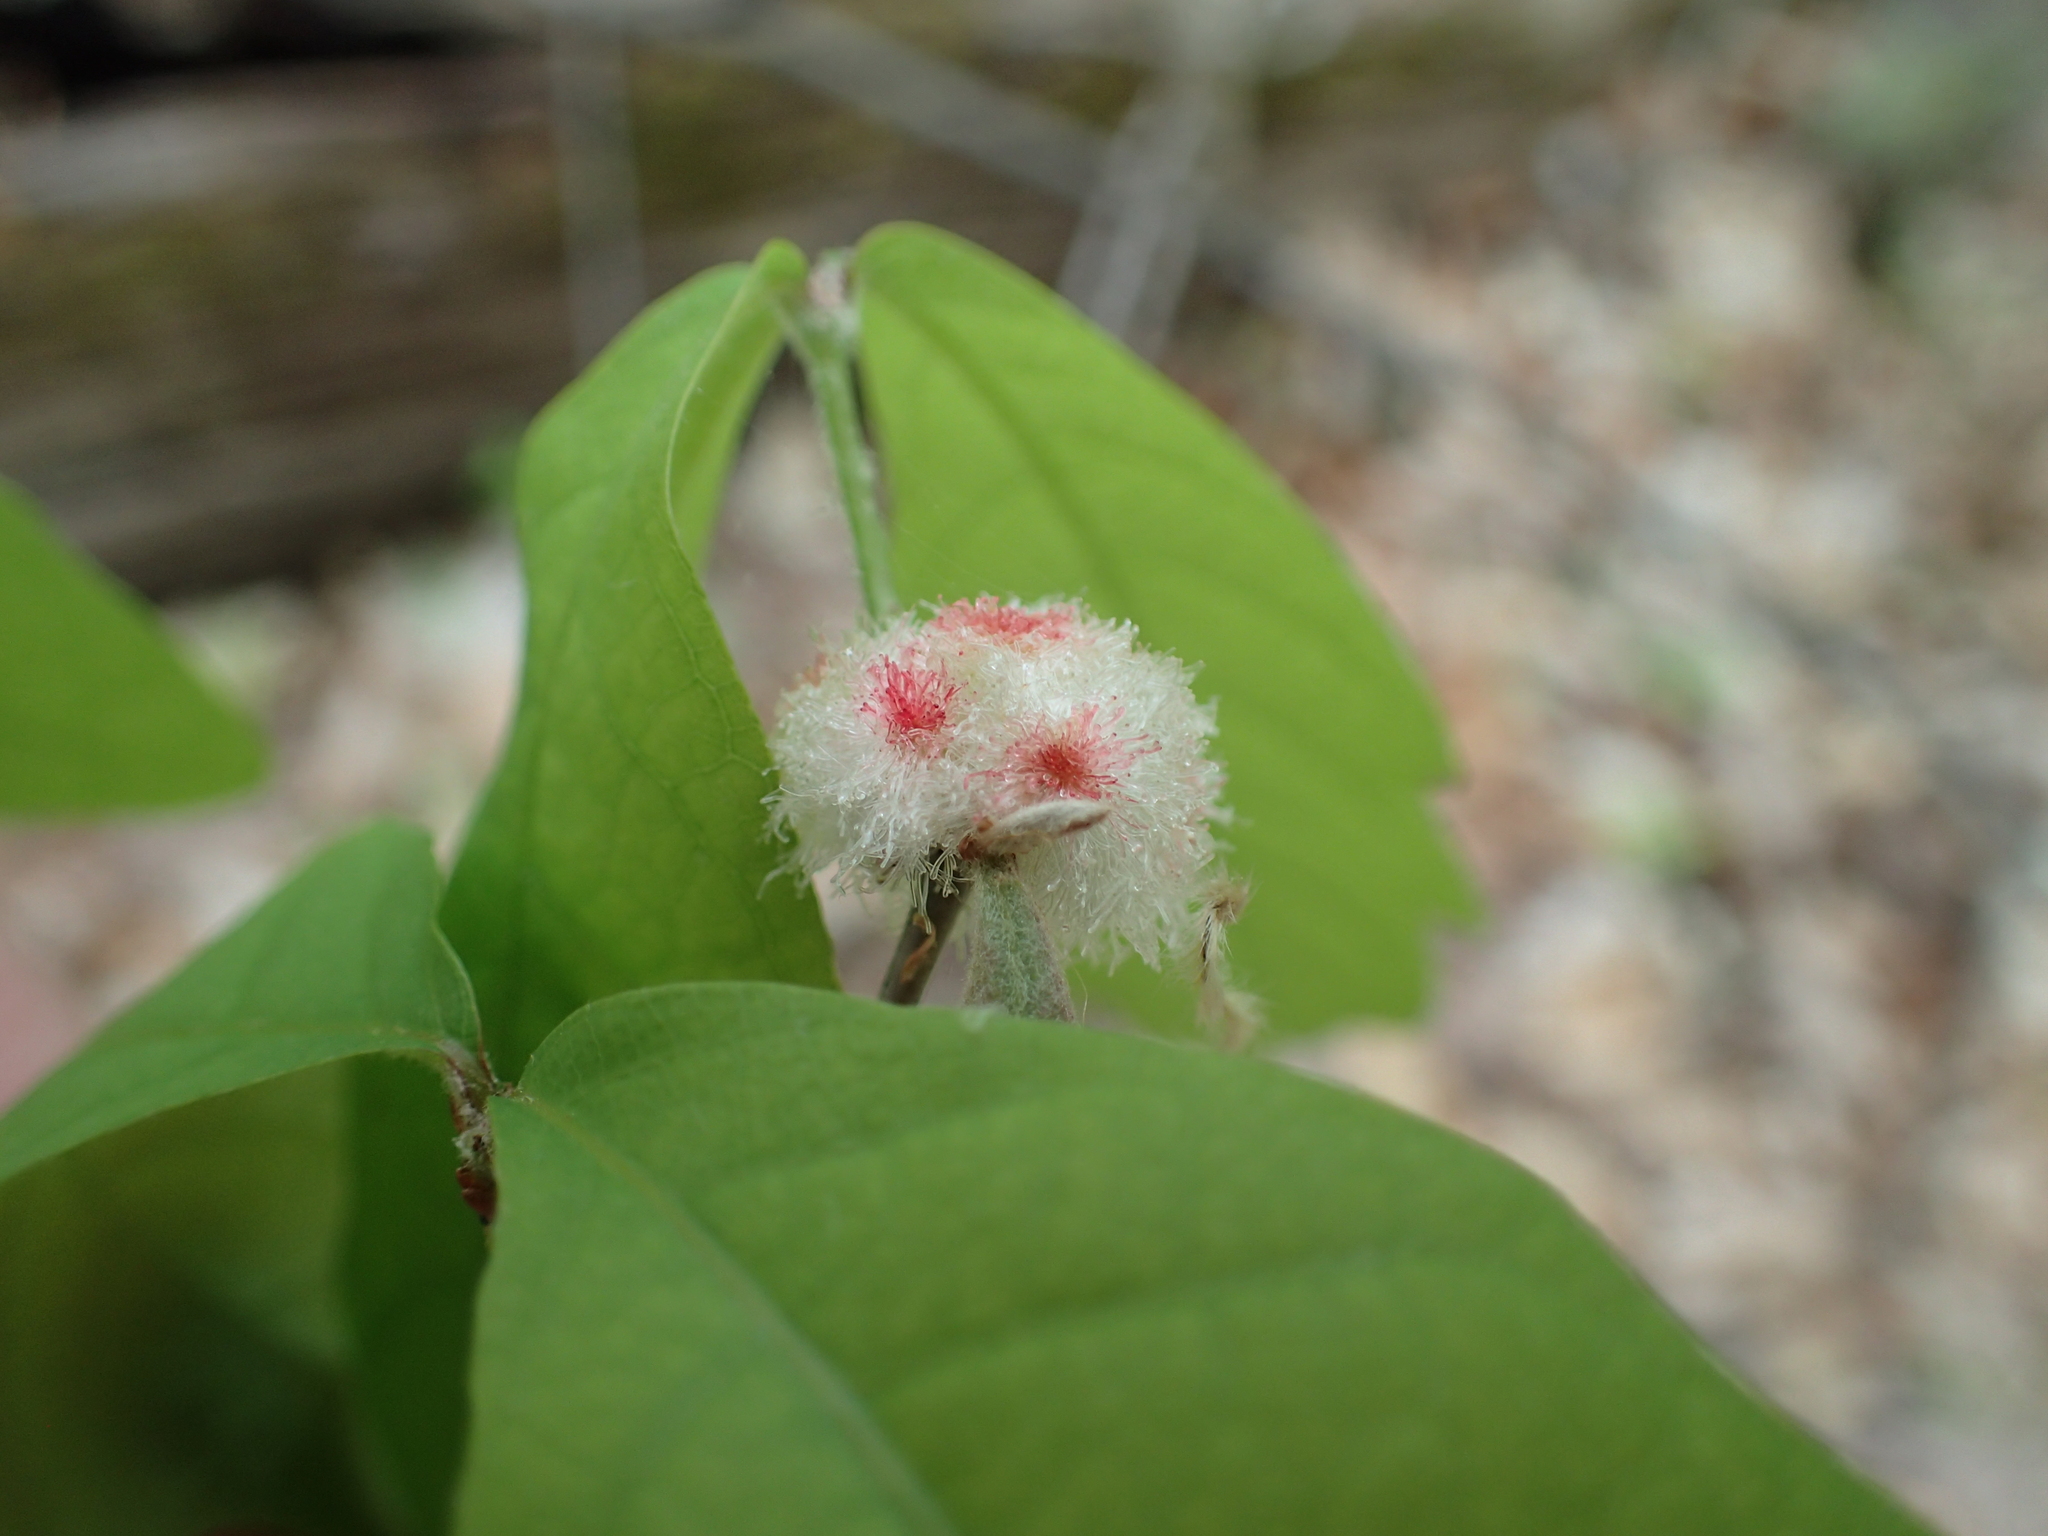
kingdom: Animalia
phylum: Arthropoda
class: Insecta
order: Hymenoptera
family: Cynipidae
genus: Callirhytis
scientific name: Callirhytis
